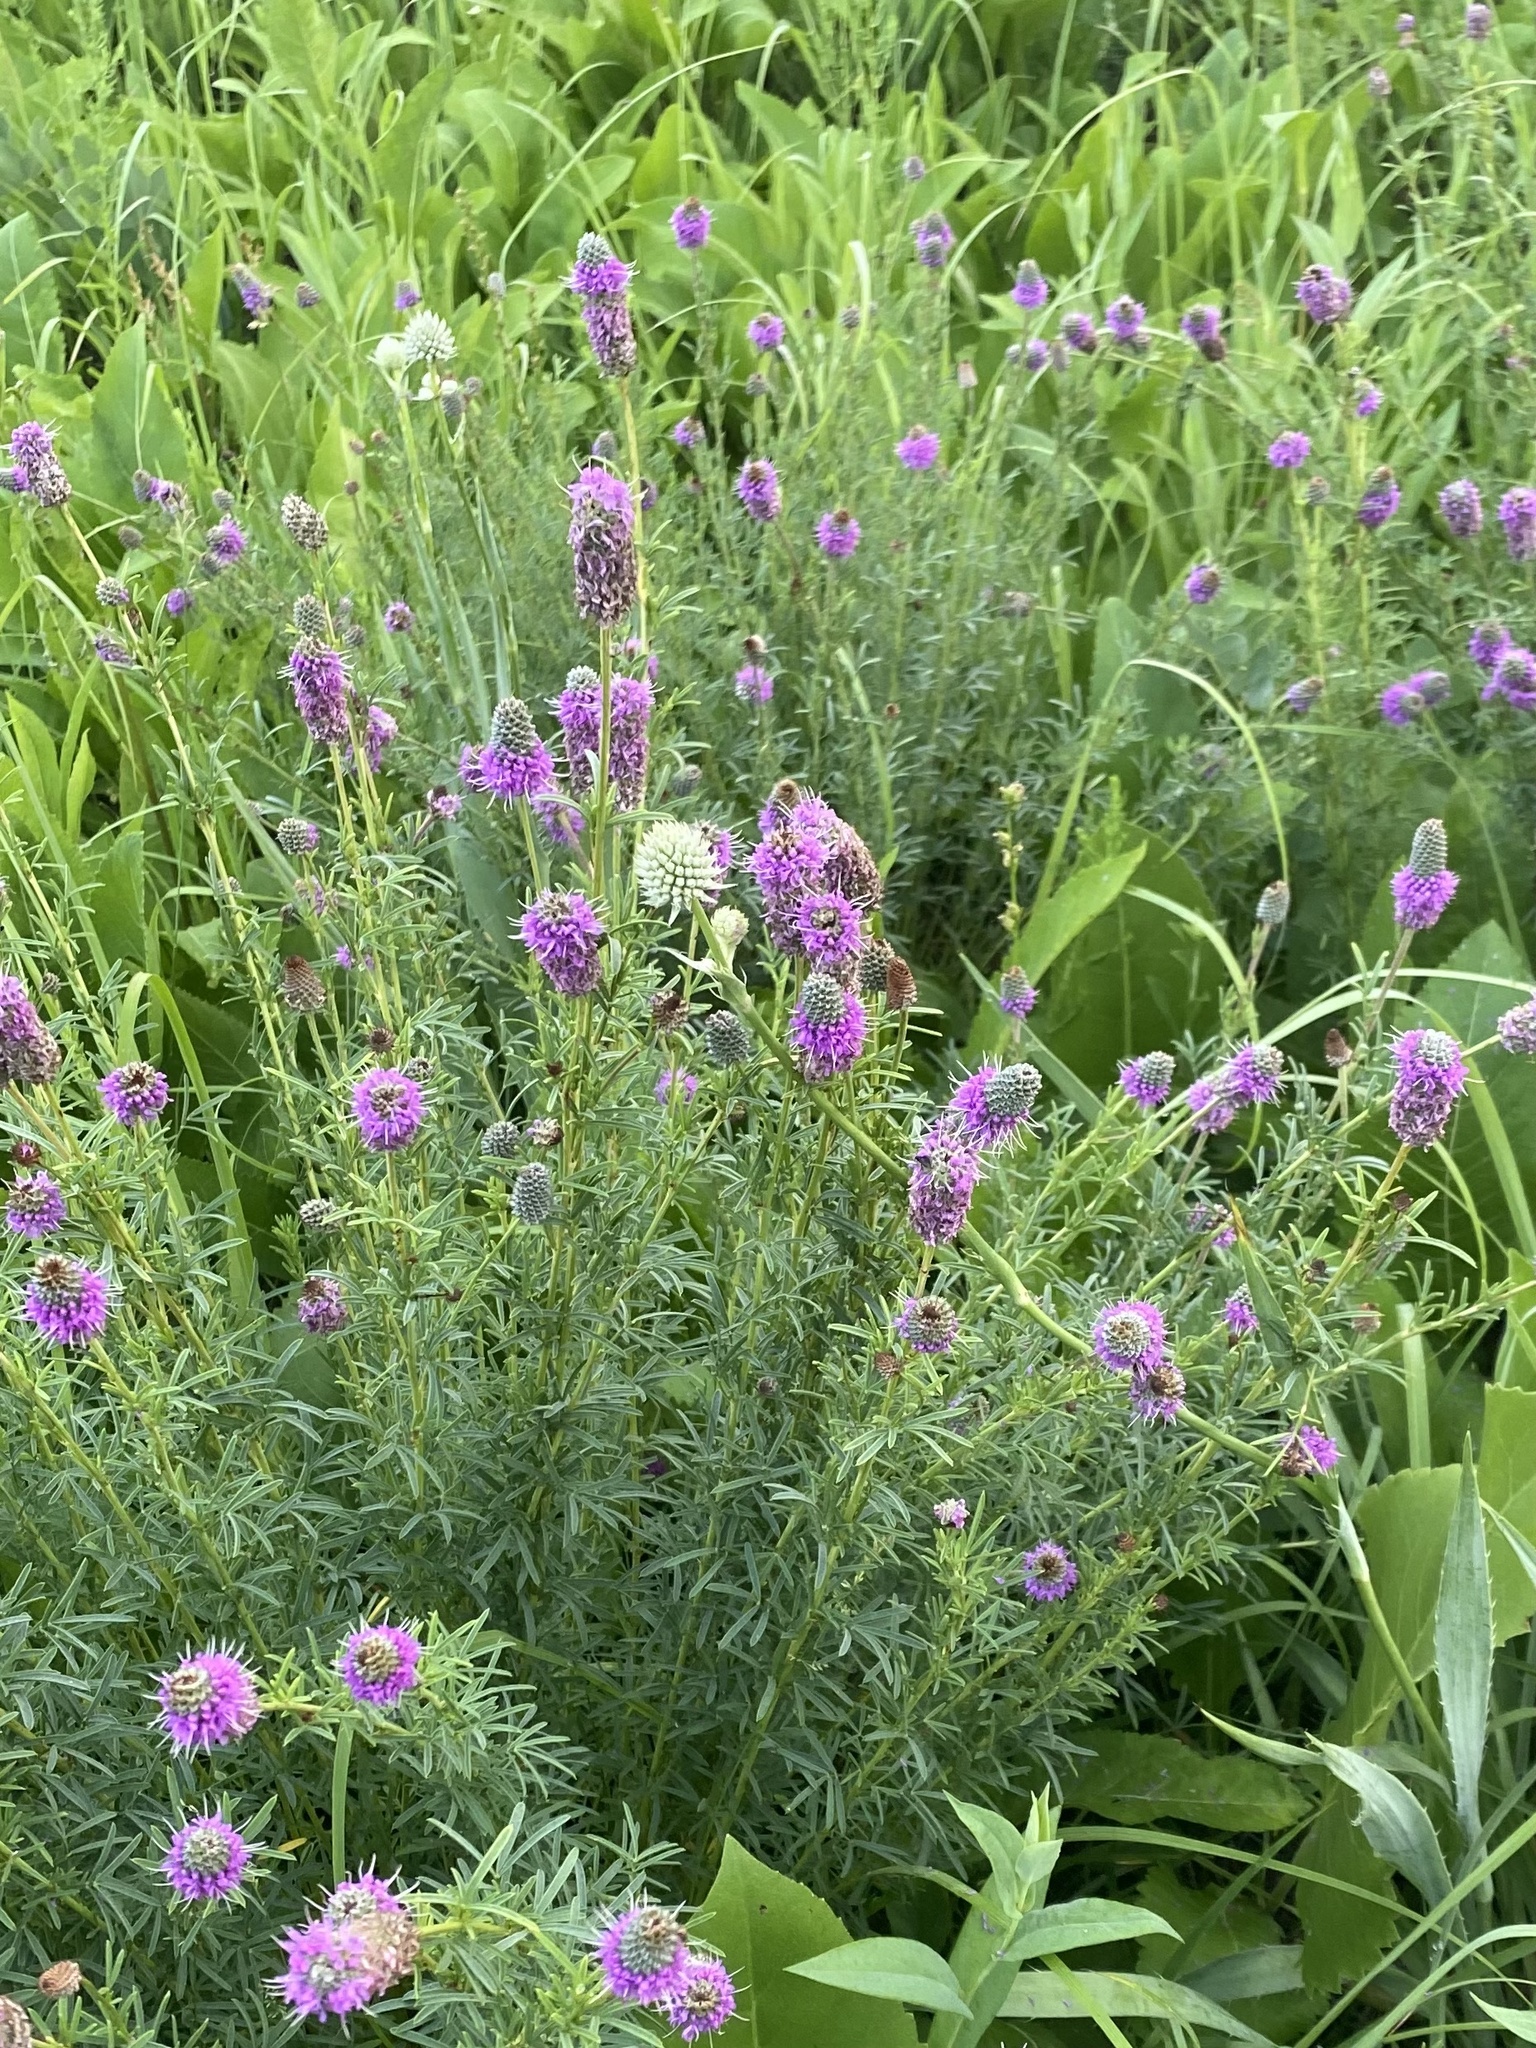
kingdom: Plantae
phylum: Tracheophyta
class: Magnoliopsida
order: Fabales
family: Fabaceae
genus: Dalea
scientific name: Dalea purpurea
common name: Purple prairie-clover
